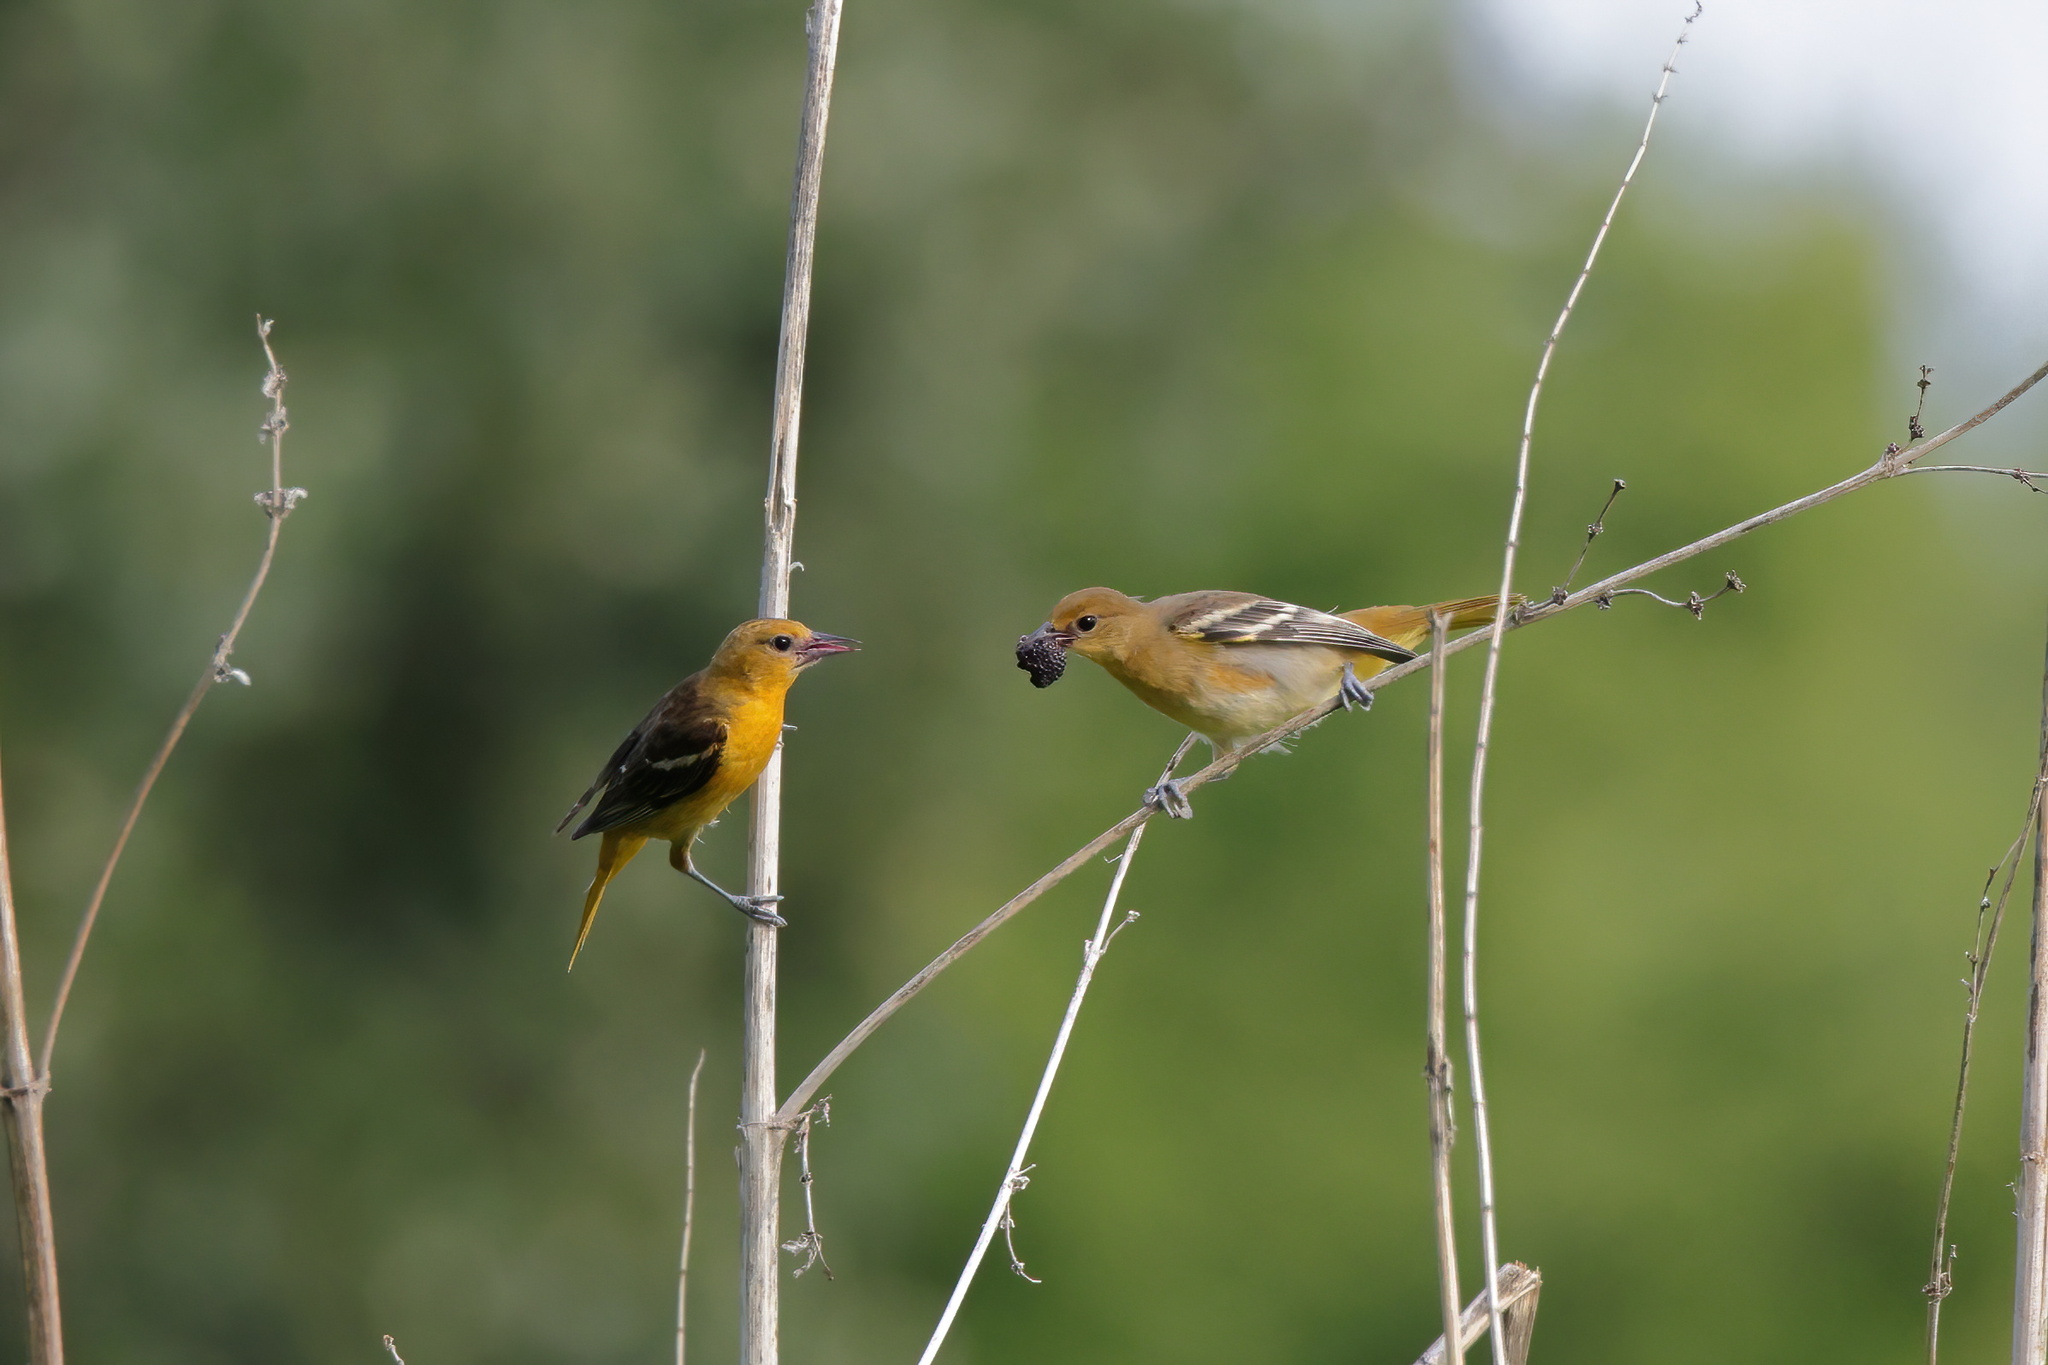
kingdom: Animalia
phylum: Chordata
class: Aves
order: Passeriformes
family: Icteridae
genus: Icterus
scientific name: Icterus galbula
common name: Baltimore oriole
